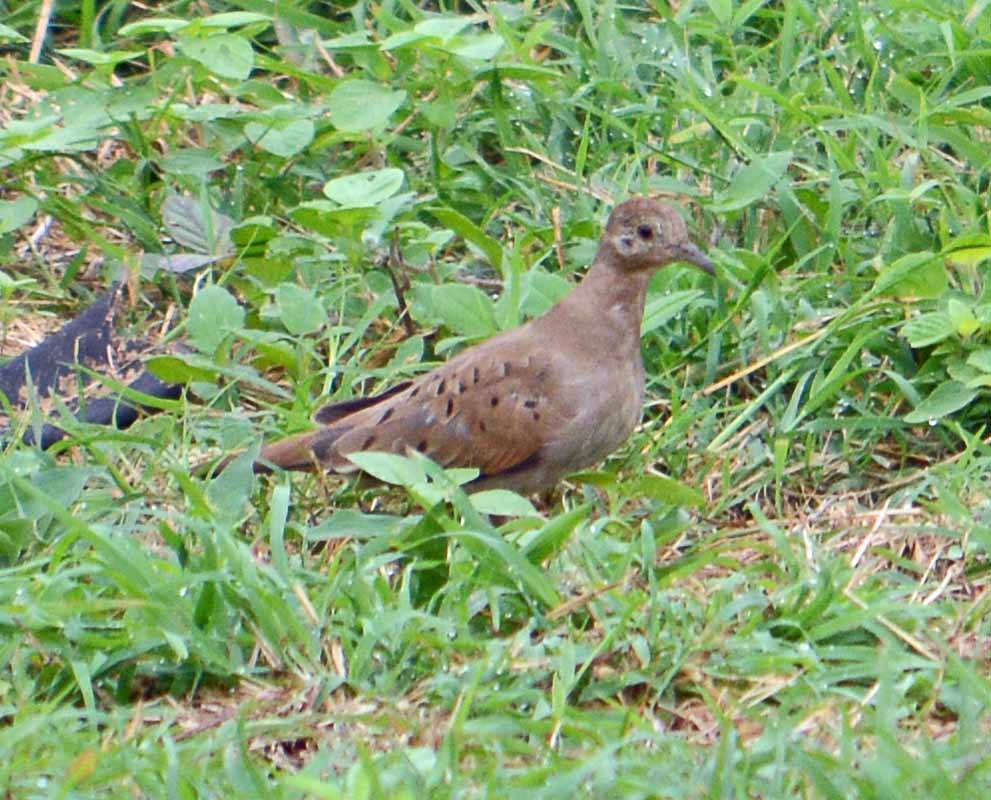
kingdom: Animalia
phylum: Chordata
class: Aves
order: Columbiformes
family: Columbidae
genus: Columbina
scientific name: Columbina talpacoti
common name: Ruddy ground dove
